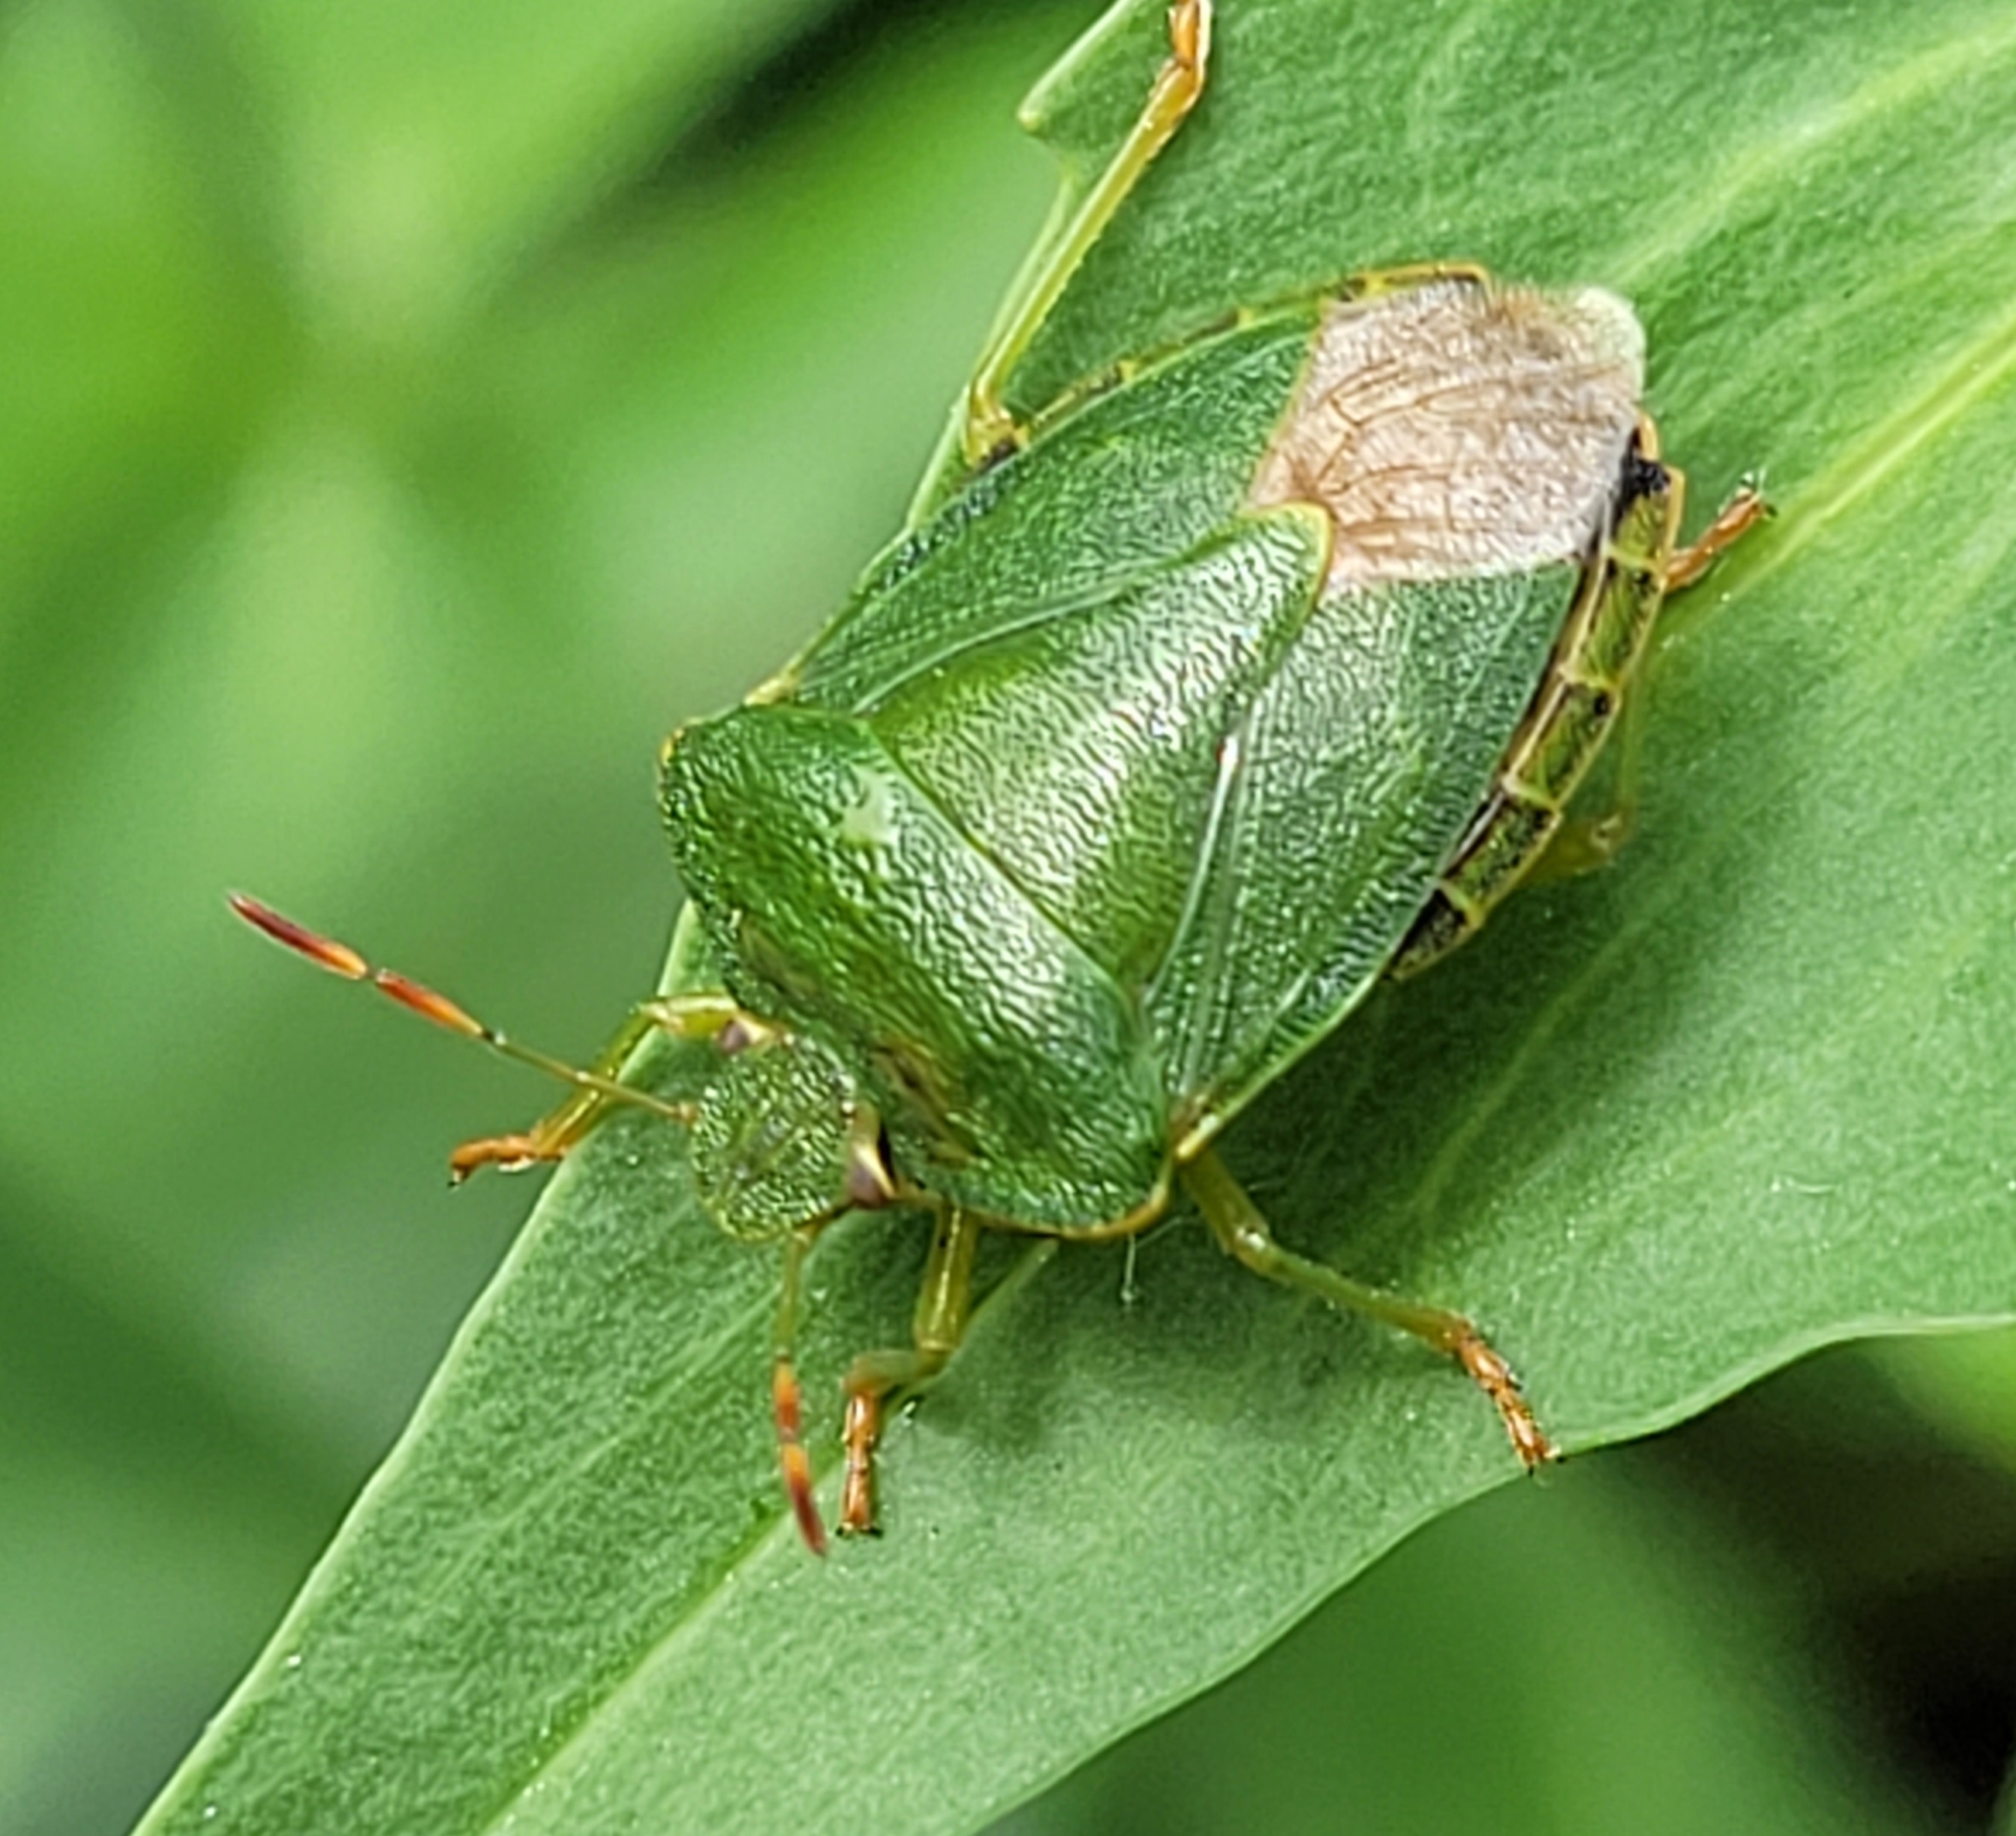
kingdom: Animalia
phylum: Arthropoda
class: Insecta
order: Hemiptera
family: Pentatomidae
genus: Palomena
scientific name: Palomena prasina
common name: Green shieldbug
